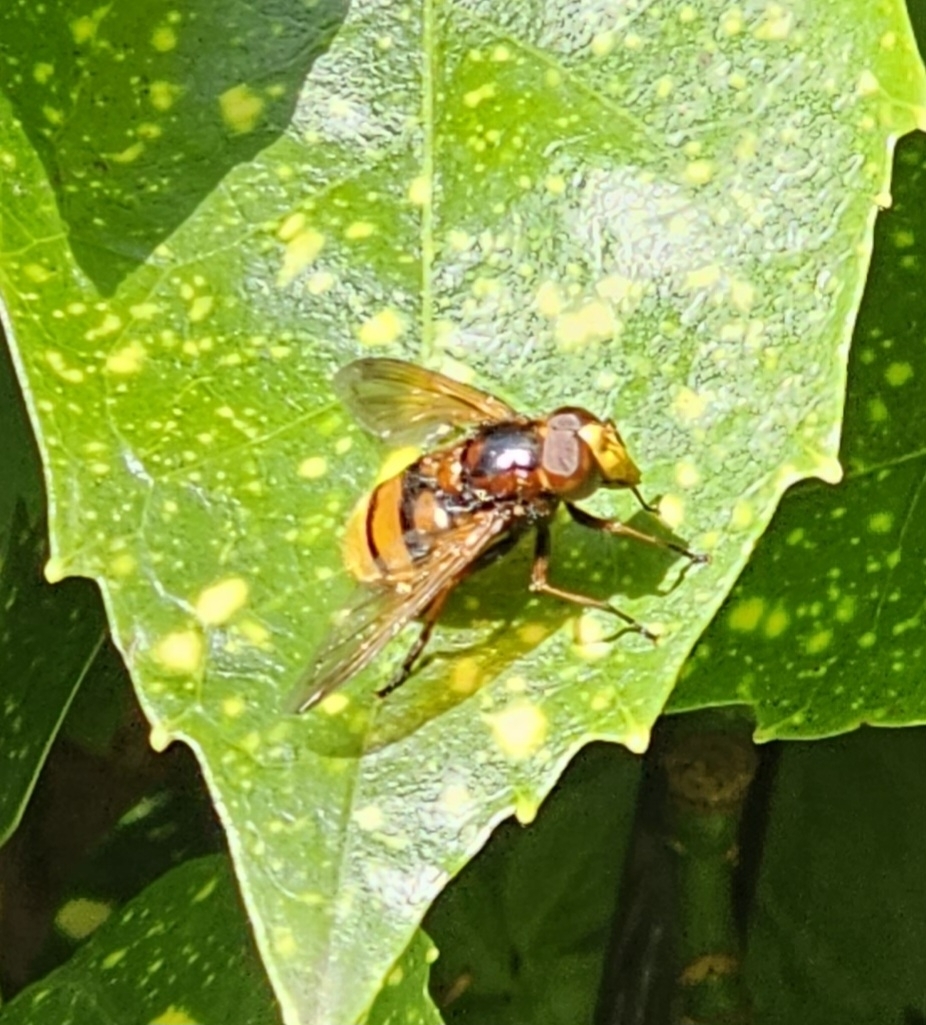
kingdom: Animalia
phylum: Arthropoda
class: Insecta
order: Diptera
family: Syrphidae
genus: Volucella
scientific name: Volucella zonaria
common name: Hornet hoverfly
